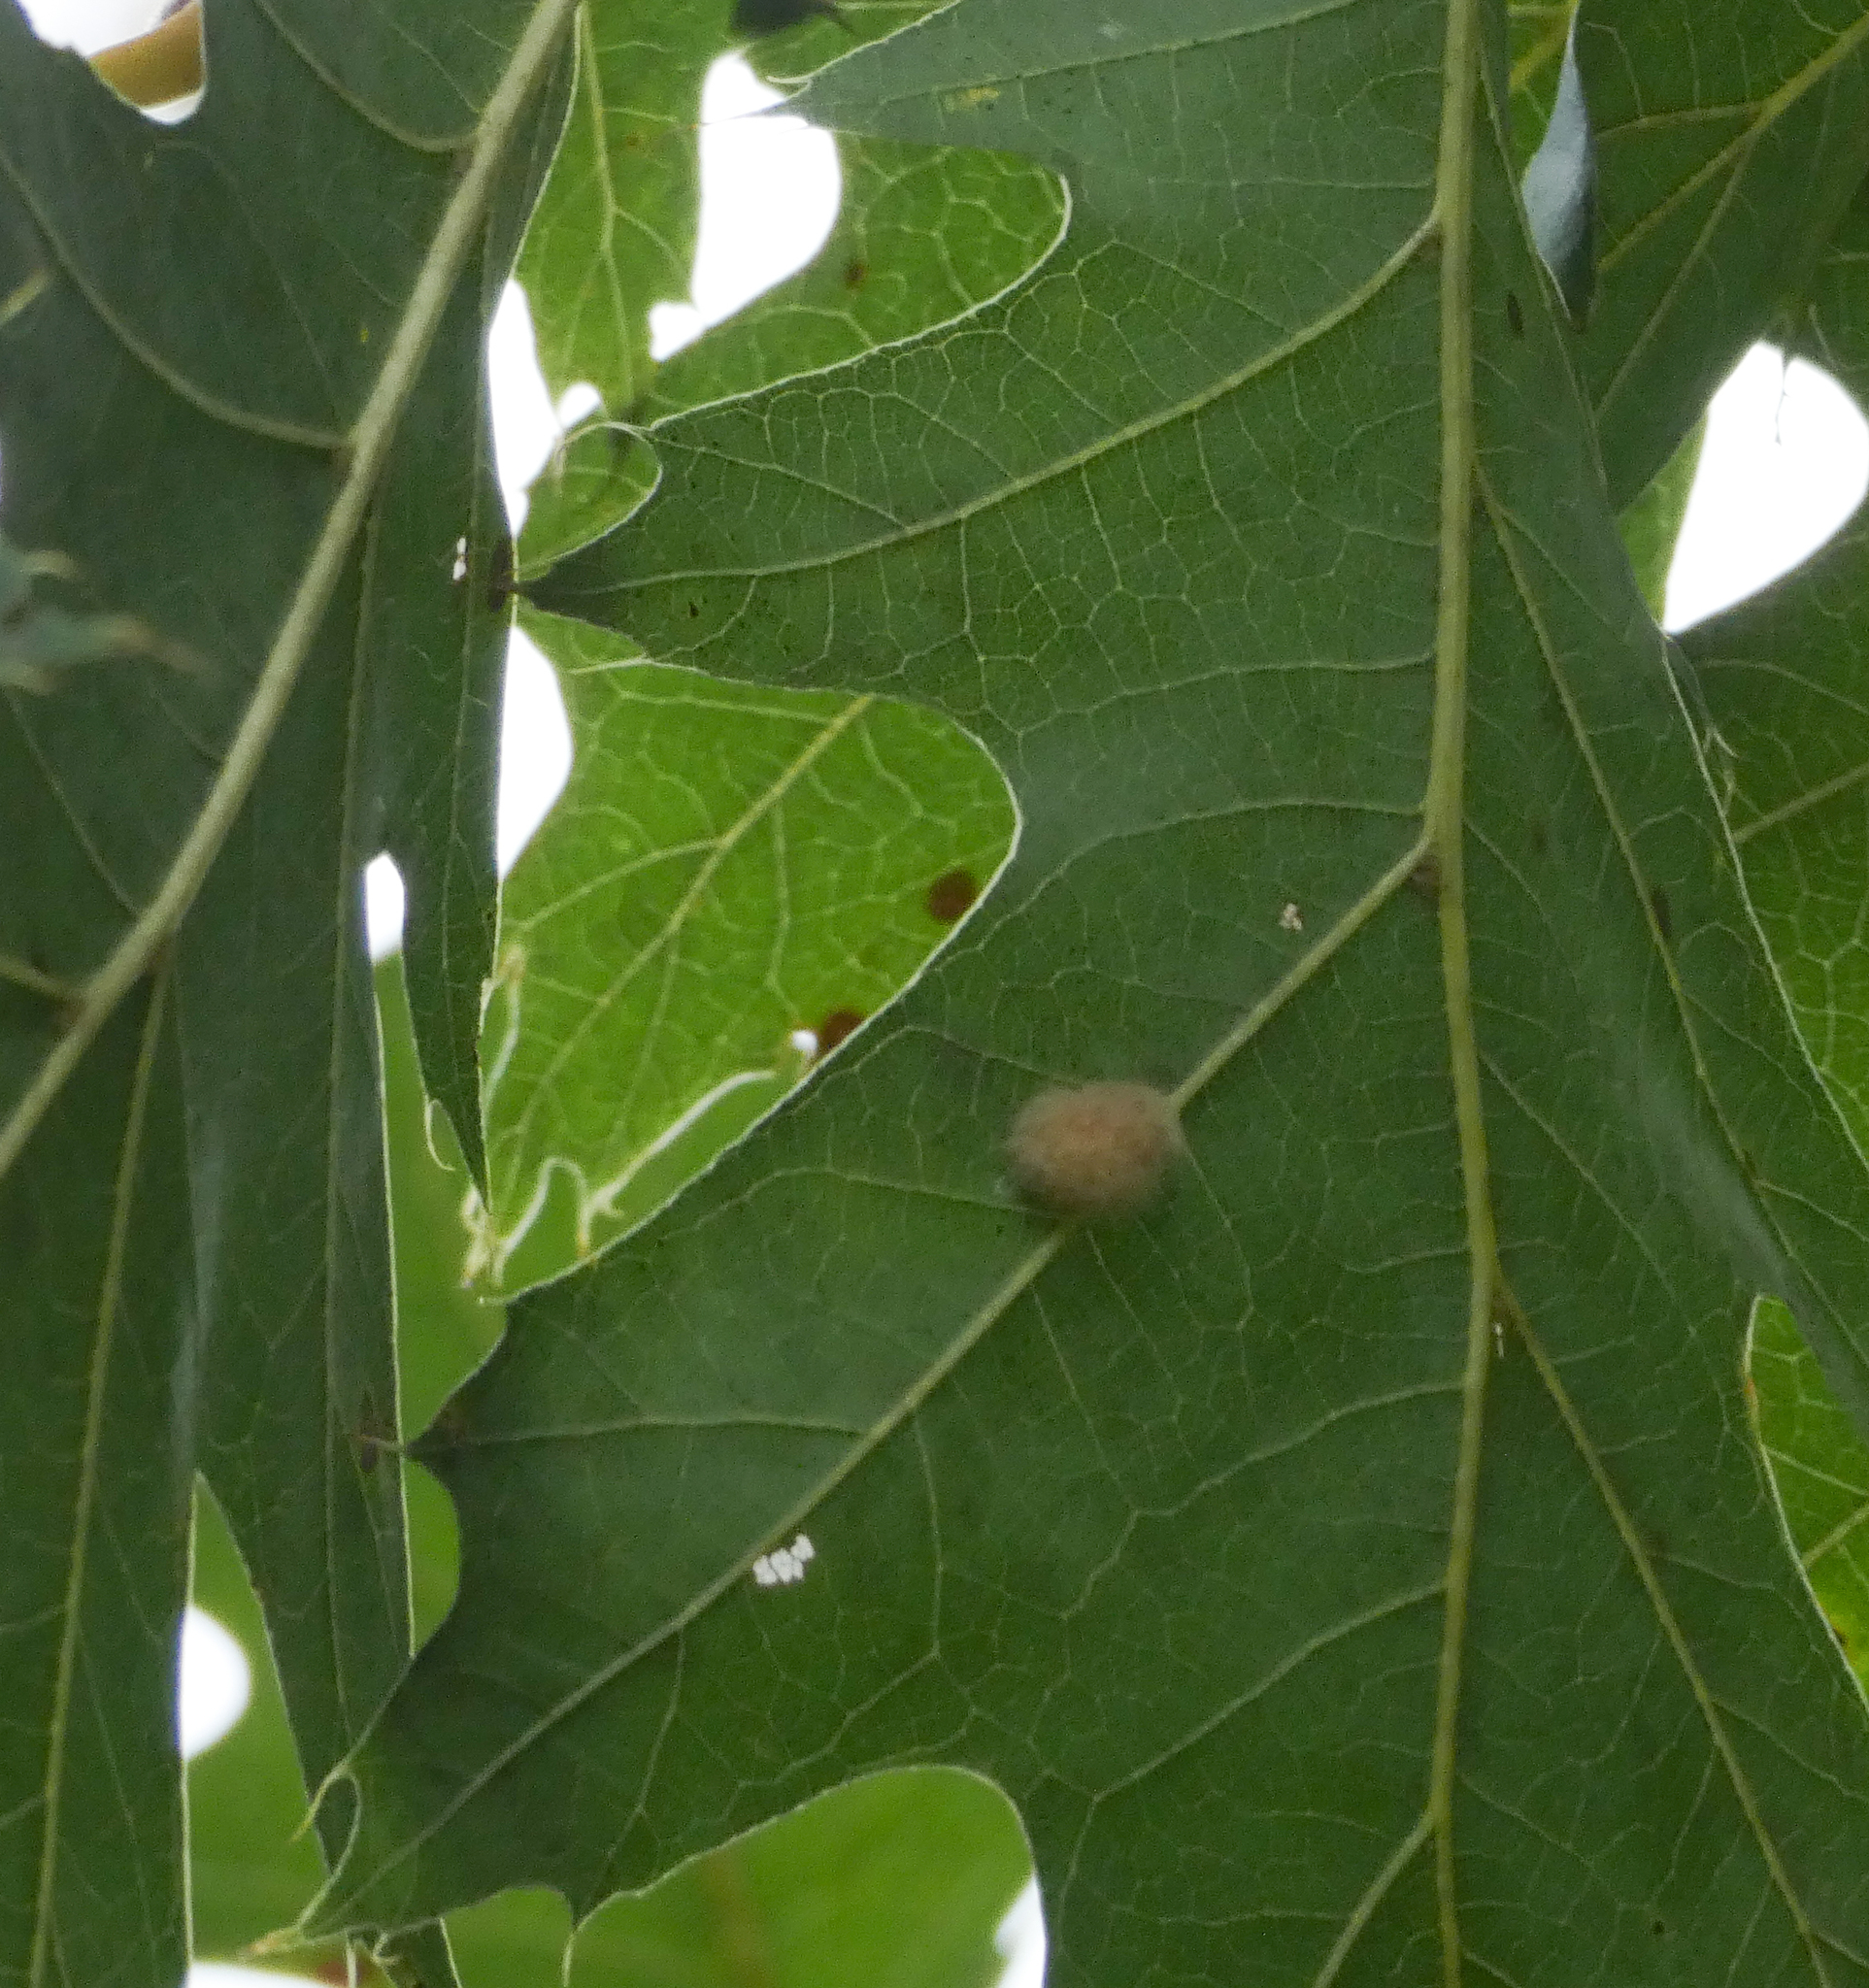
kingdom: Animalia
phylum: Arthropoda
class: Insecta
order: Hymenoptera
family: Cynipidae
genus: Callirhytis
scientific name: Callirhytis
